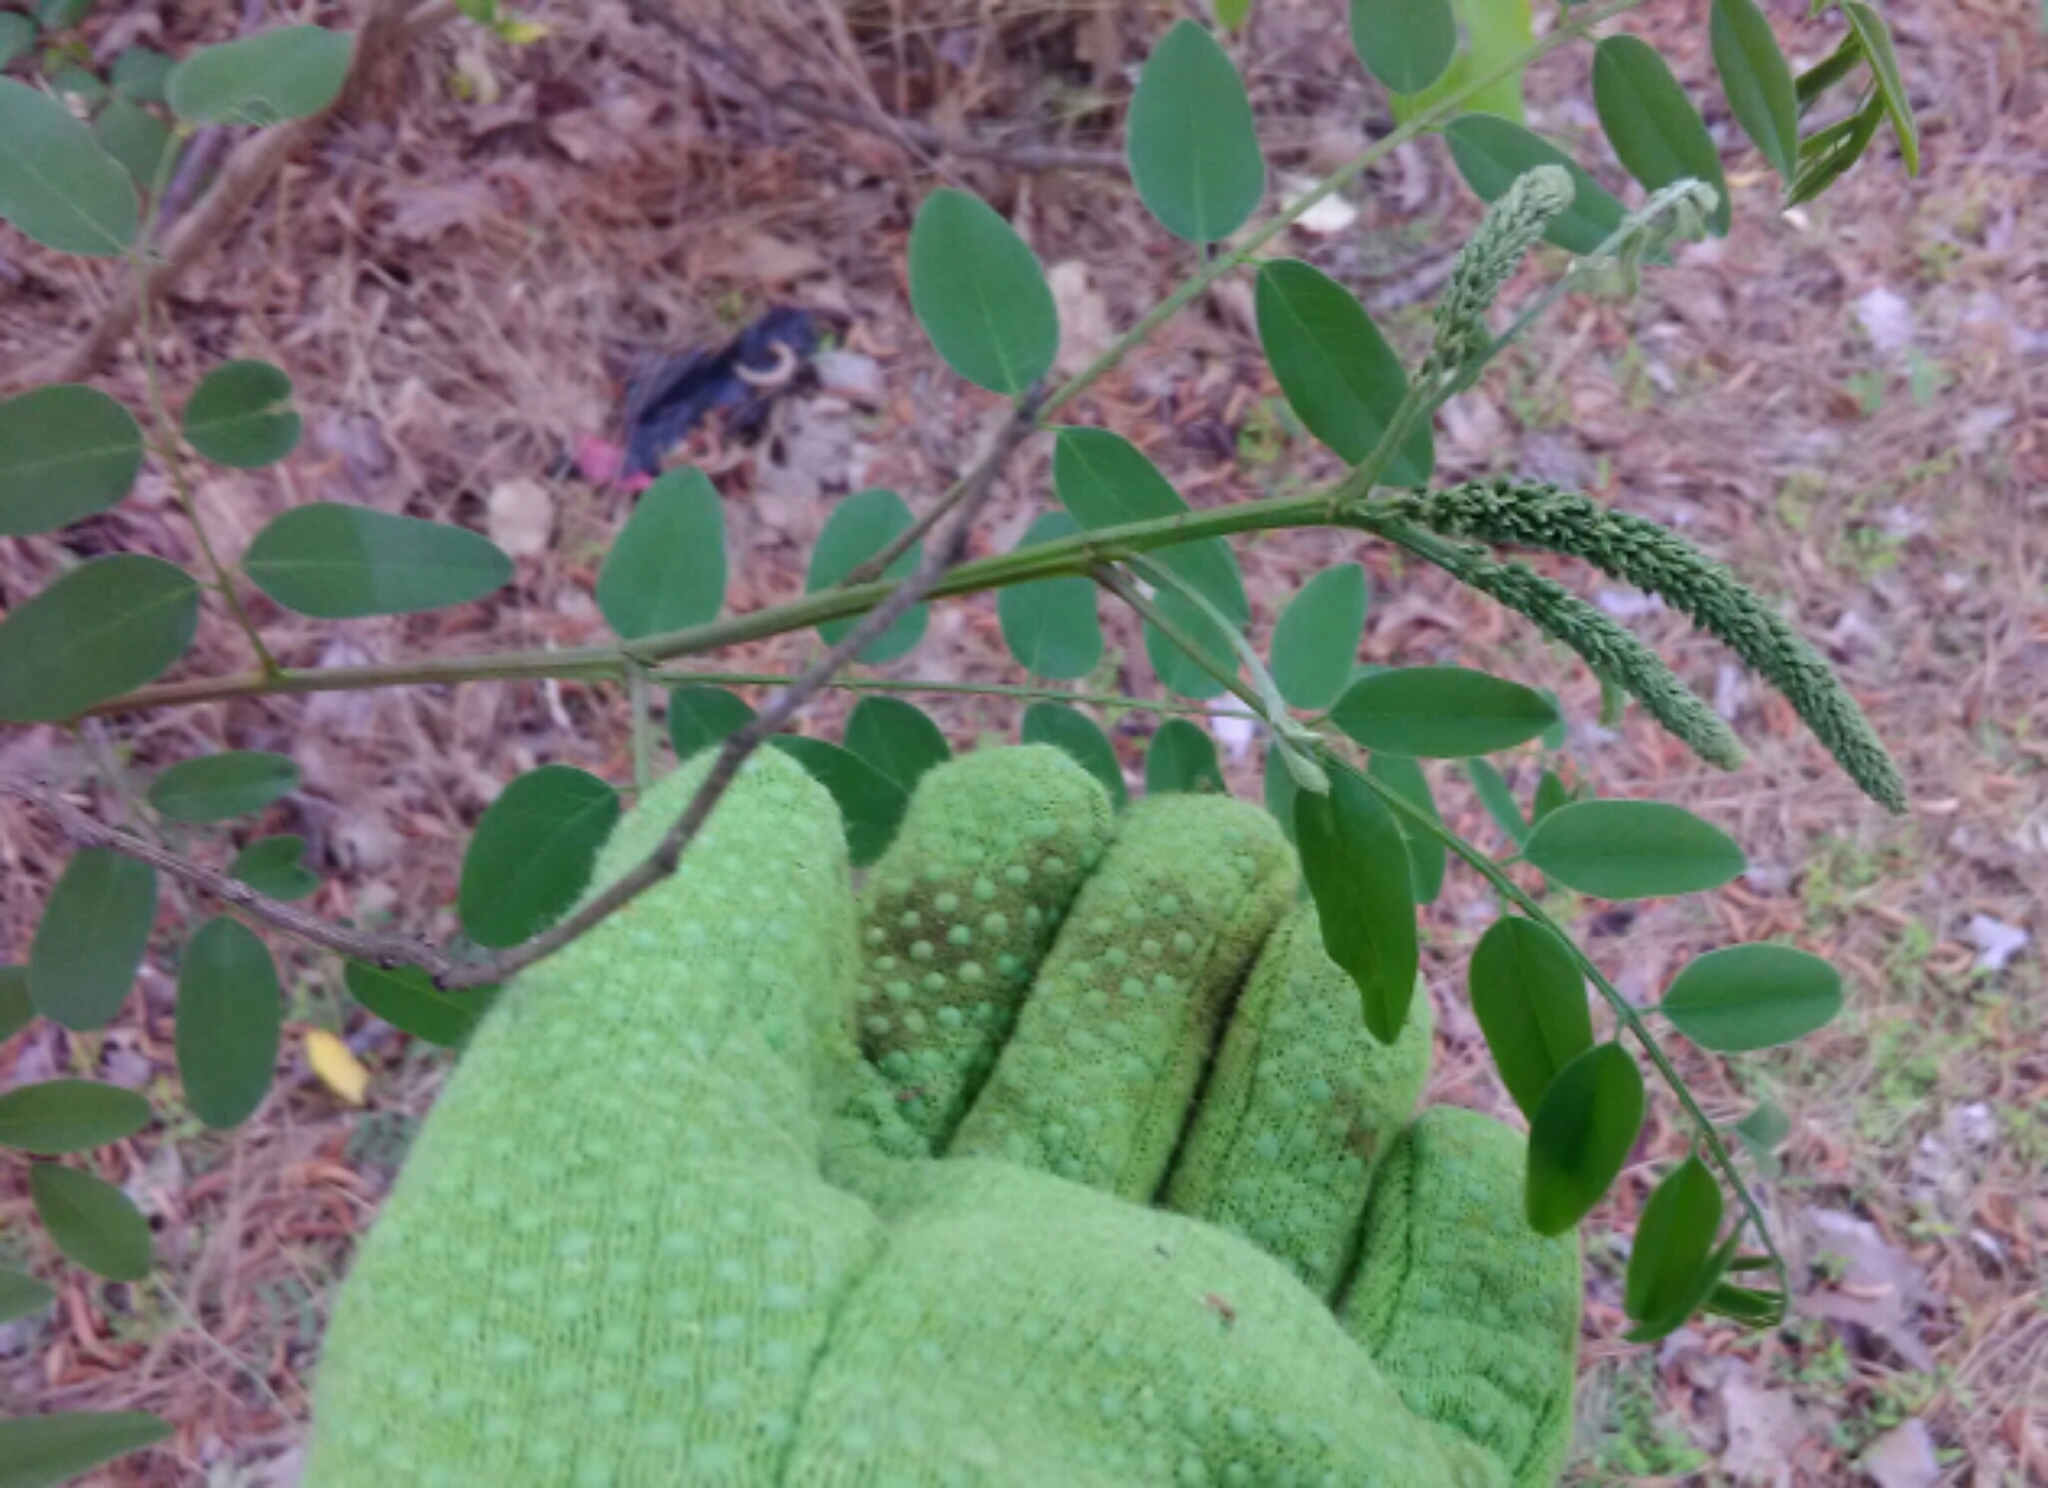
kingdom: Plantae
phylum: Tracheophyta
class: Magnoliopsida
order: Fabales
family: Fabaceae
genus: Robinia
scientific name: Robinia pseudoacacia
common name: Black locust
